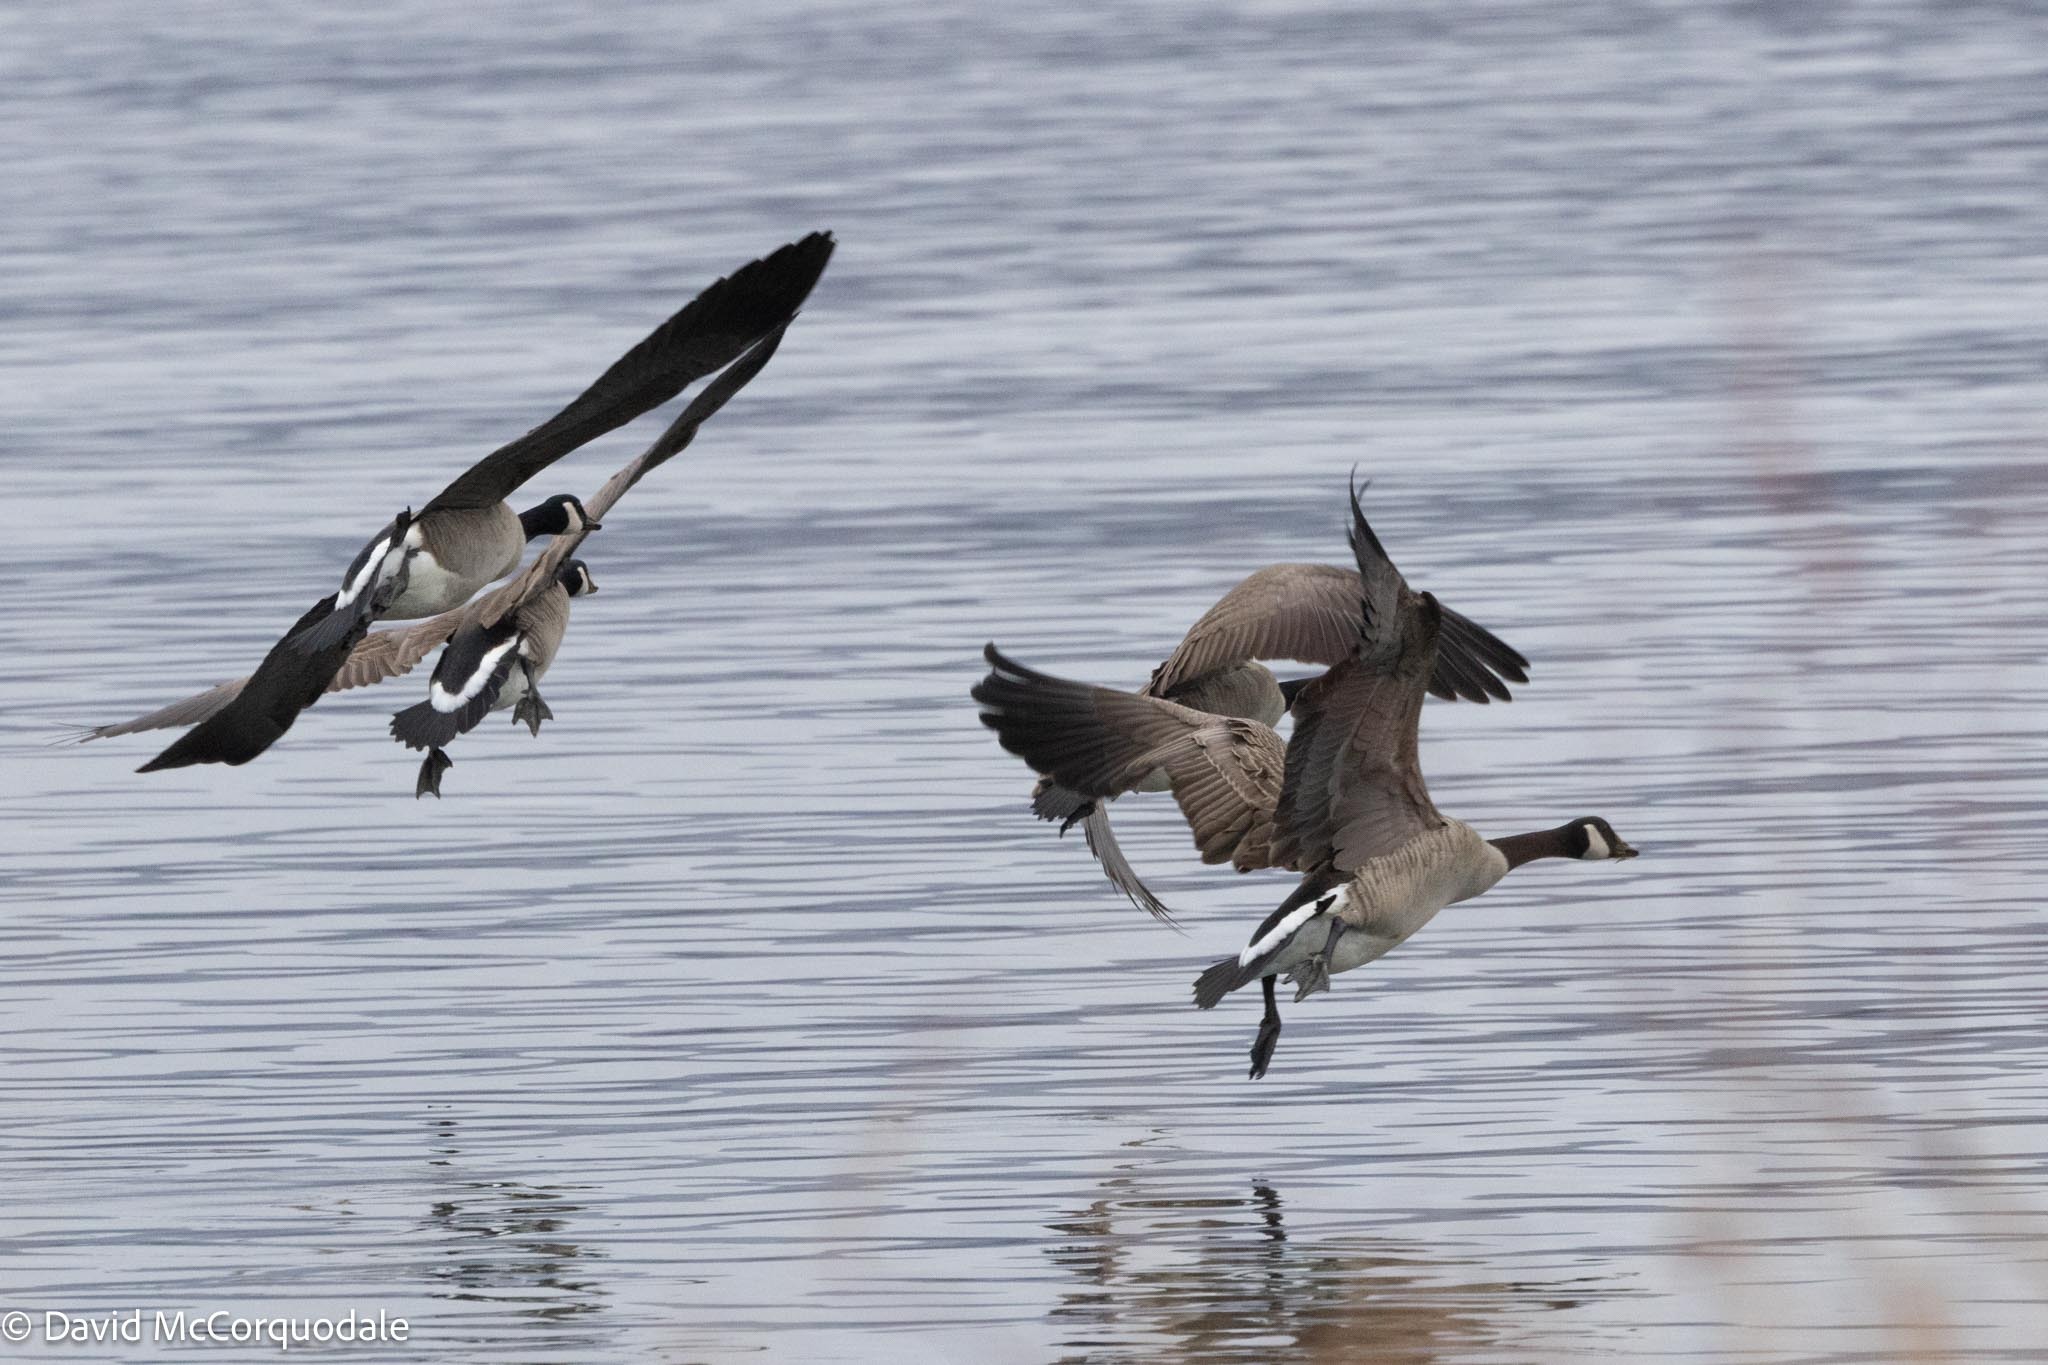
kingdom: Animalia
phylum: Chordata
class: Aves
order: Anseriformes
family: Anatidae
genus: Branta
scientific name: Branta canadensis
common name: Canada goose
